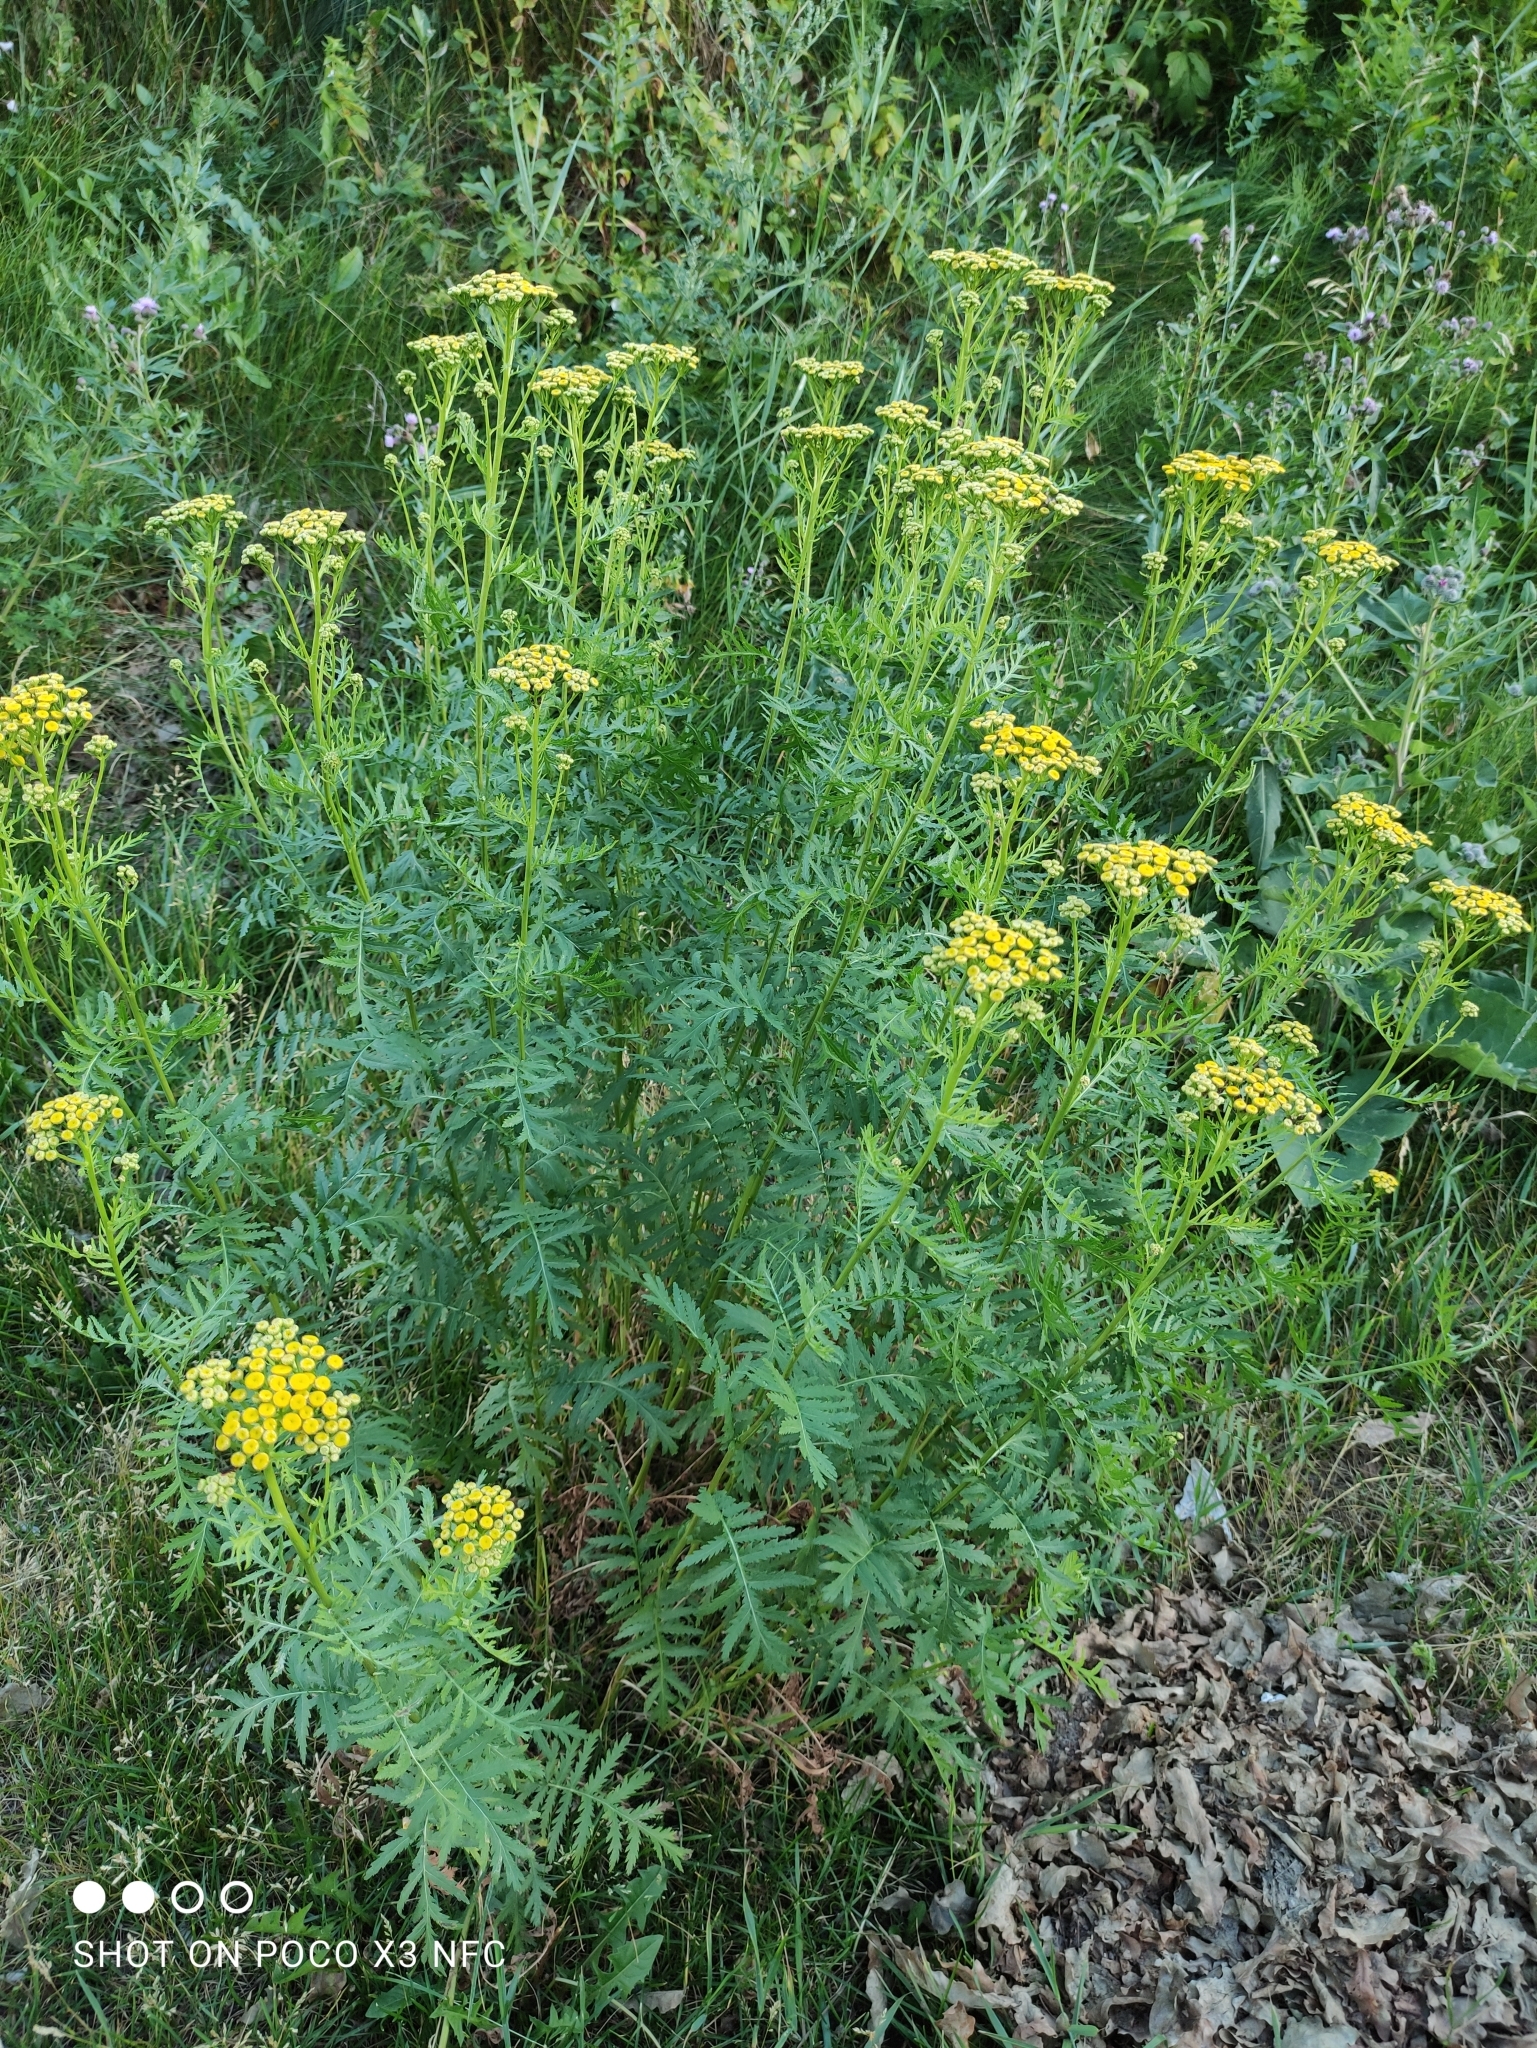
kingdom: Plantae
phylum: Tracheophyta
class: Magnoliopsida
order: Asterales
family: Asteraceae
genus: Tanacetum
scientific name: Tanacetum vulgare
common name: Common tansy
